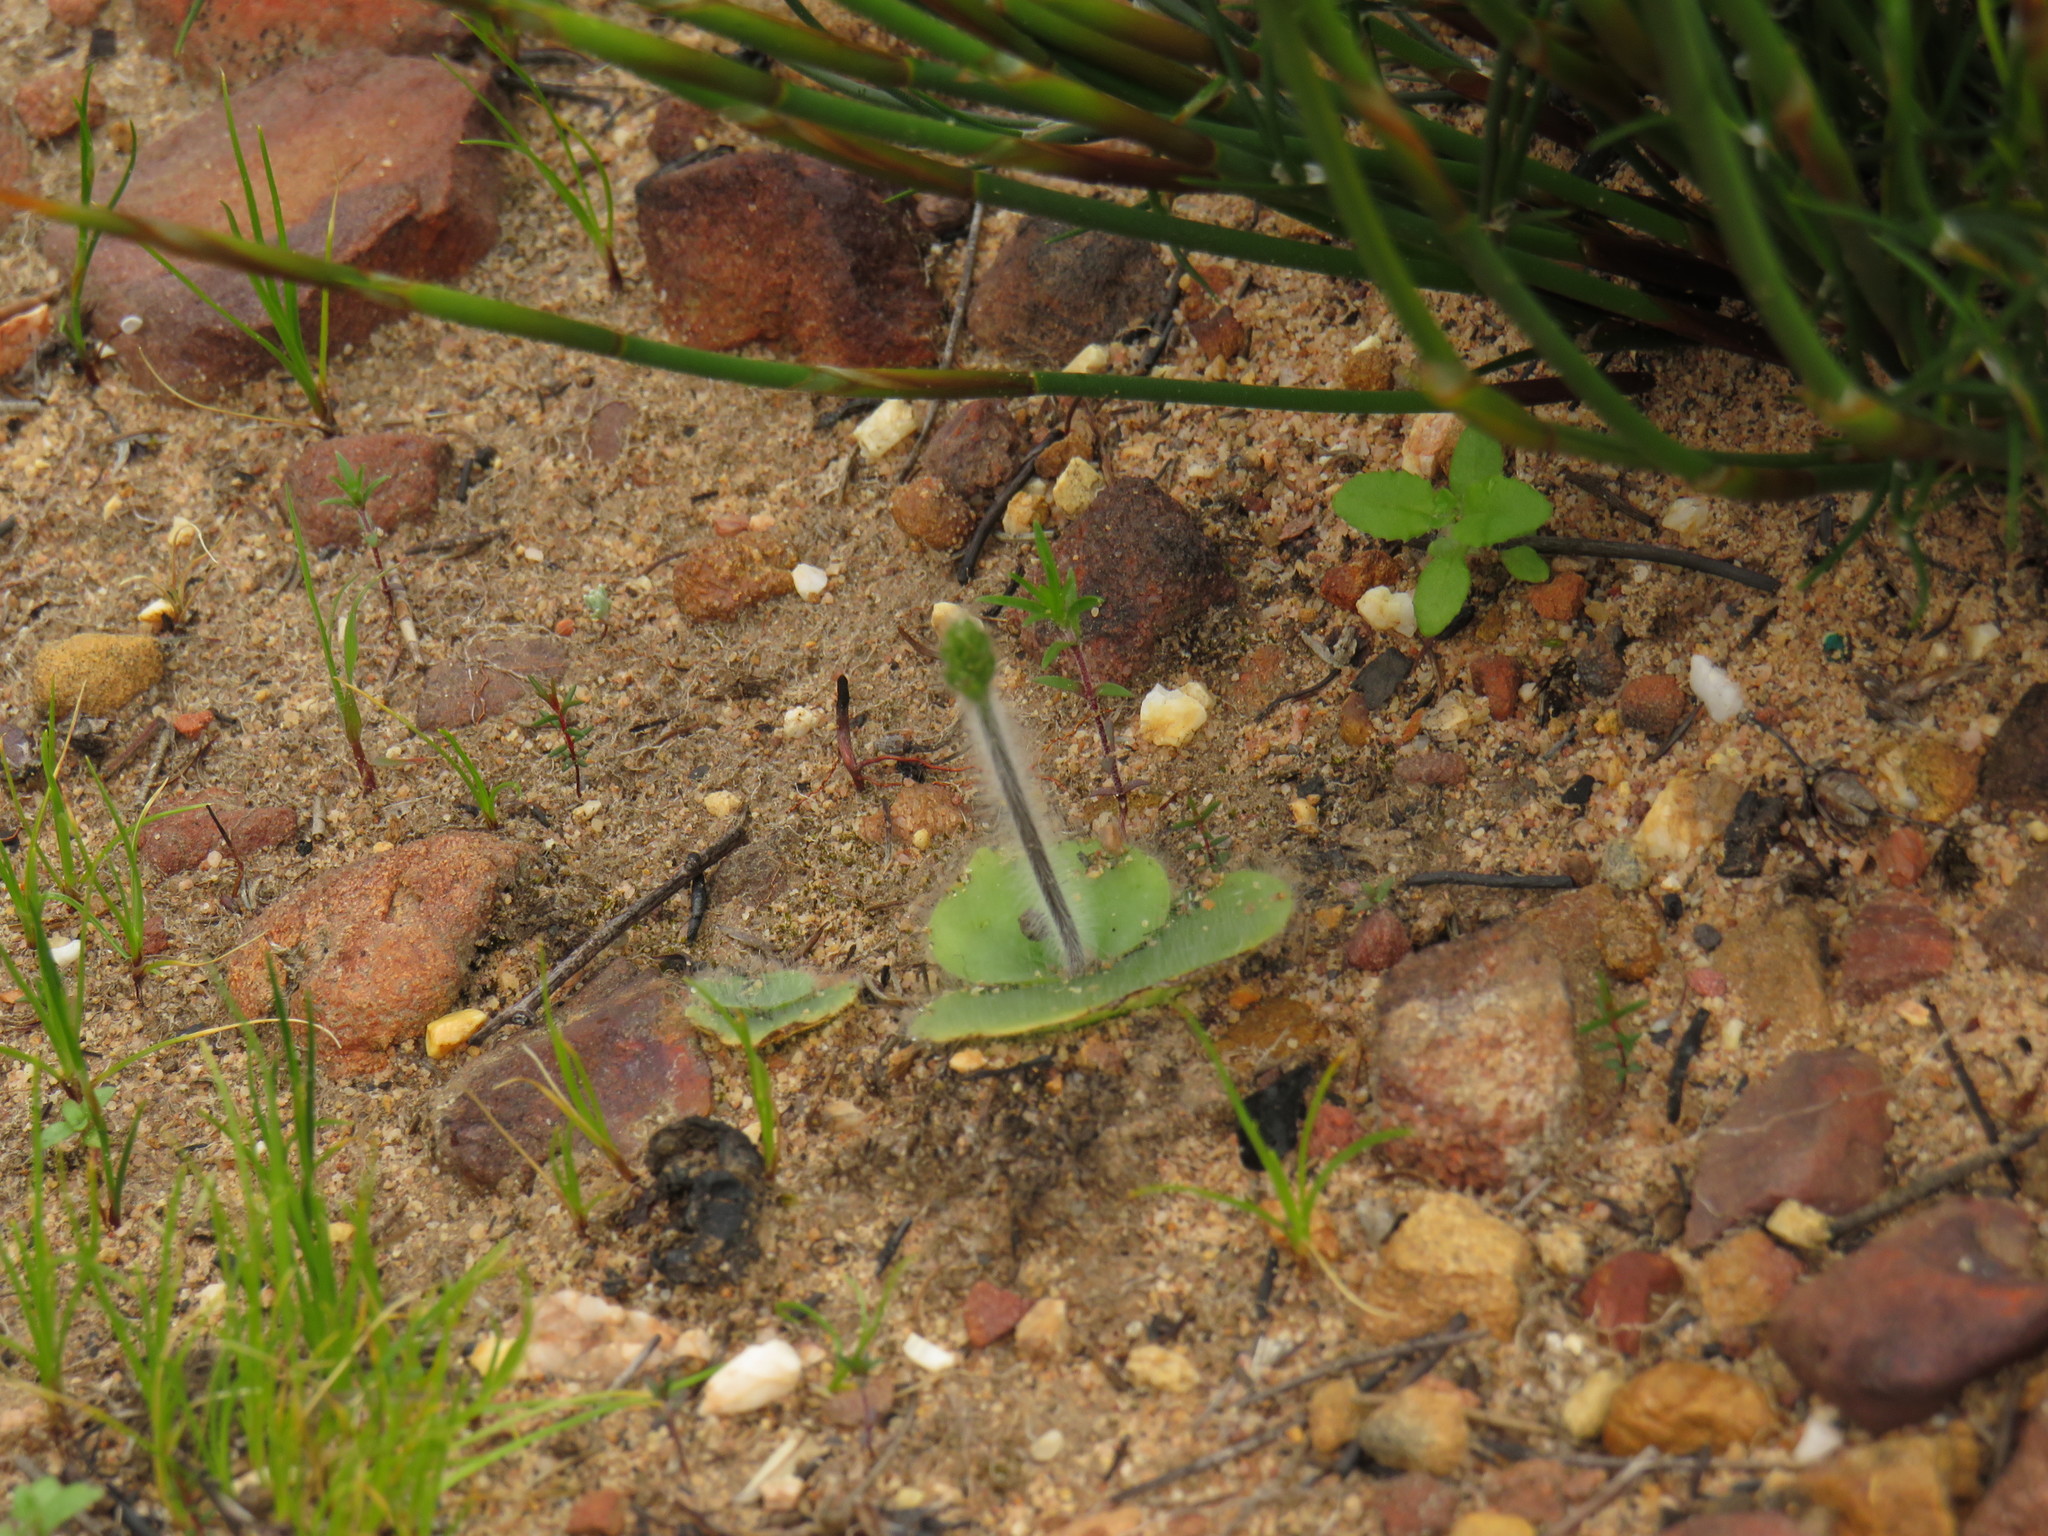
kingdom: Plantae
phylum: Tracheophyta
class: Liliopsida
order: Asparagales
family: Orchidaceae
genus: Holothrix
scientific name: Holothrix villosa
